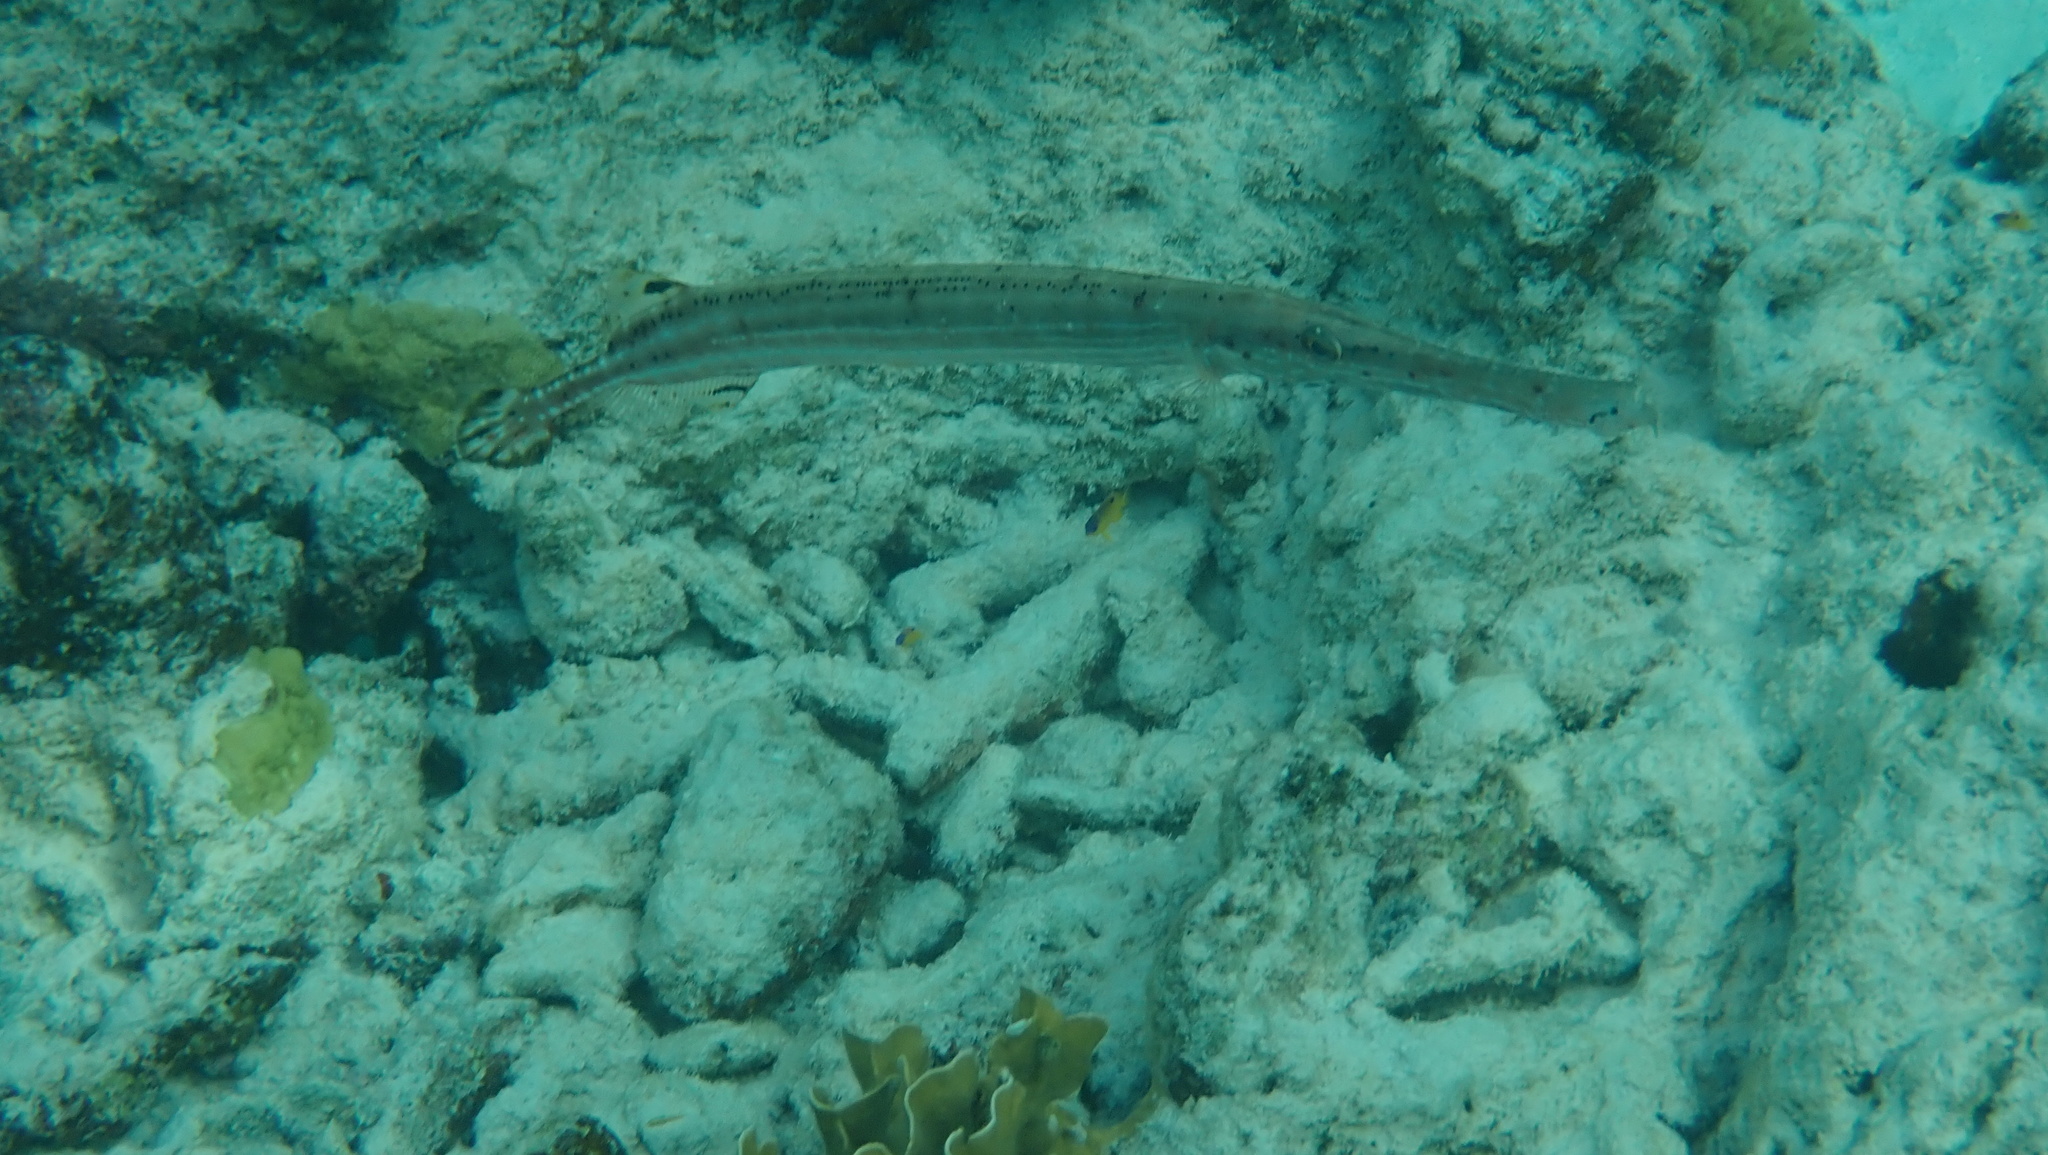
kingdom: Animalia
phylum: Chordata
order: Syngnathiformes
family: Aulostomidae
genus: Aulostomus
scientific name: Aulostomus maculatus
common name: West atlantic trumpetfish
